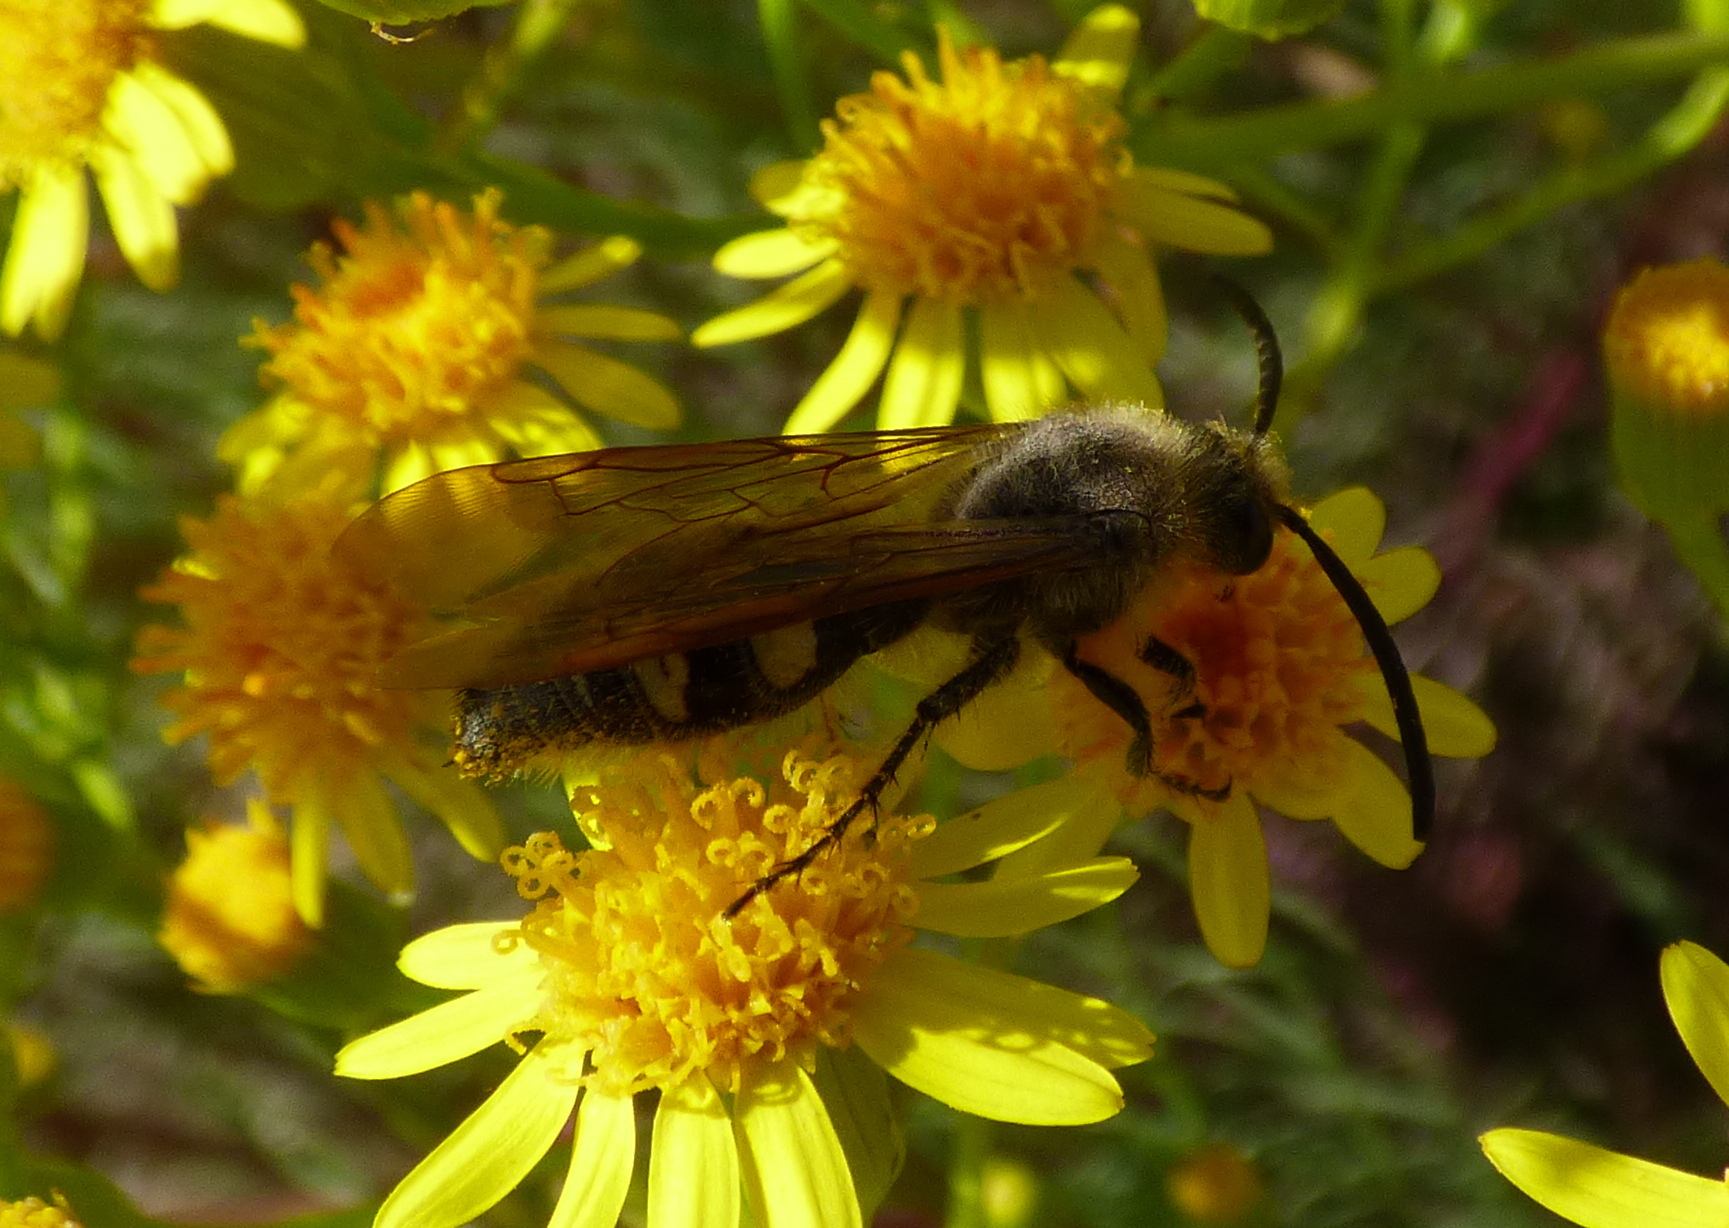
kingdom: Animalia
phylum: Arthropoda
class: Insecta
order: Hymenoptera
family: Scoliidae
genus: Pygodasis
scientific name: Pygodasis
